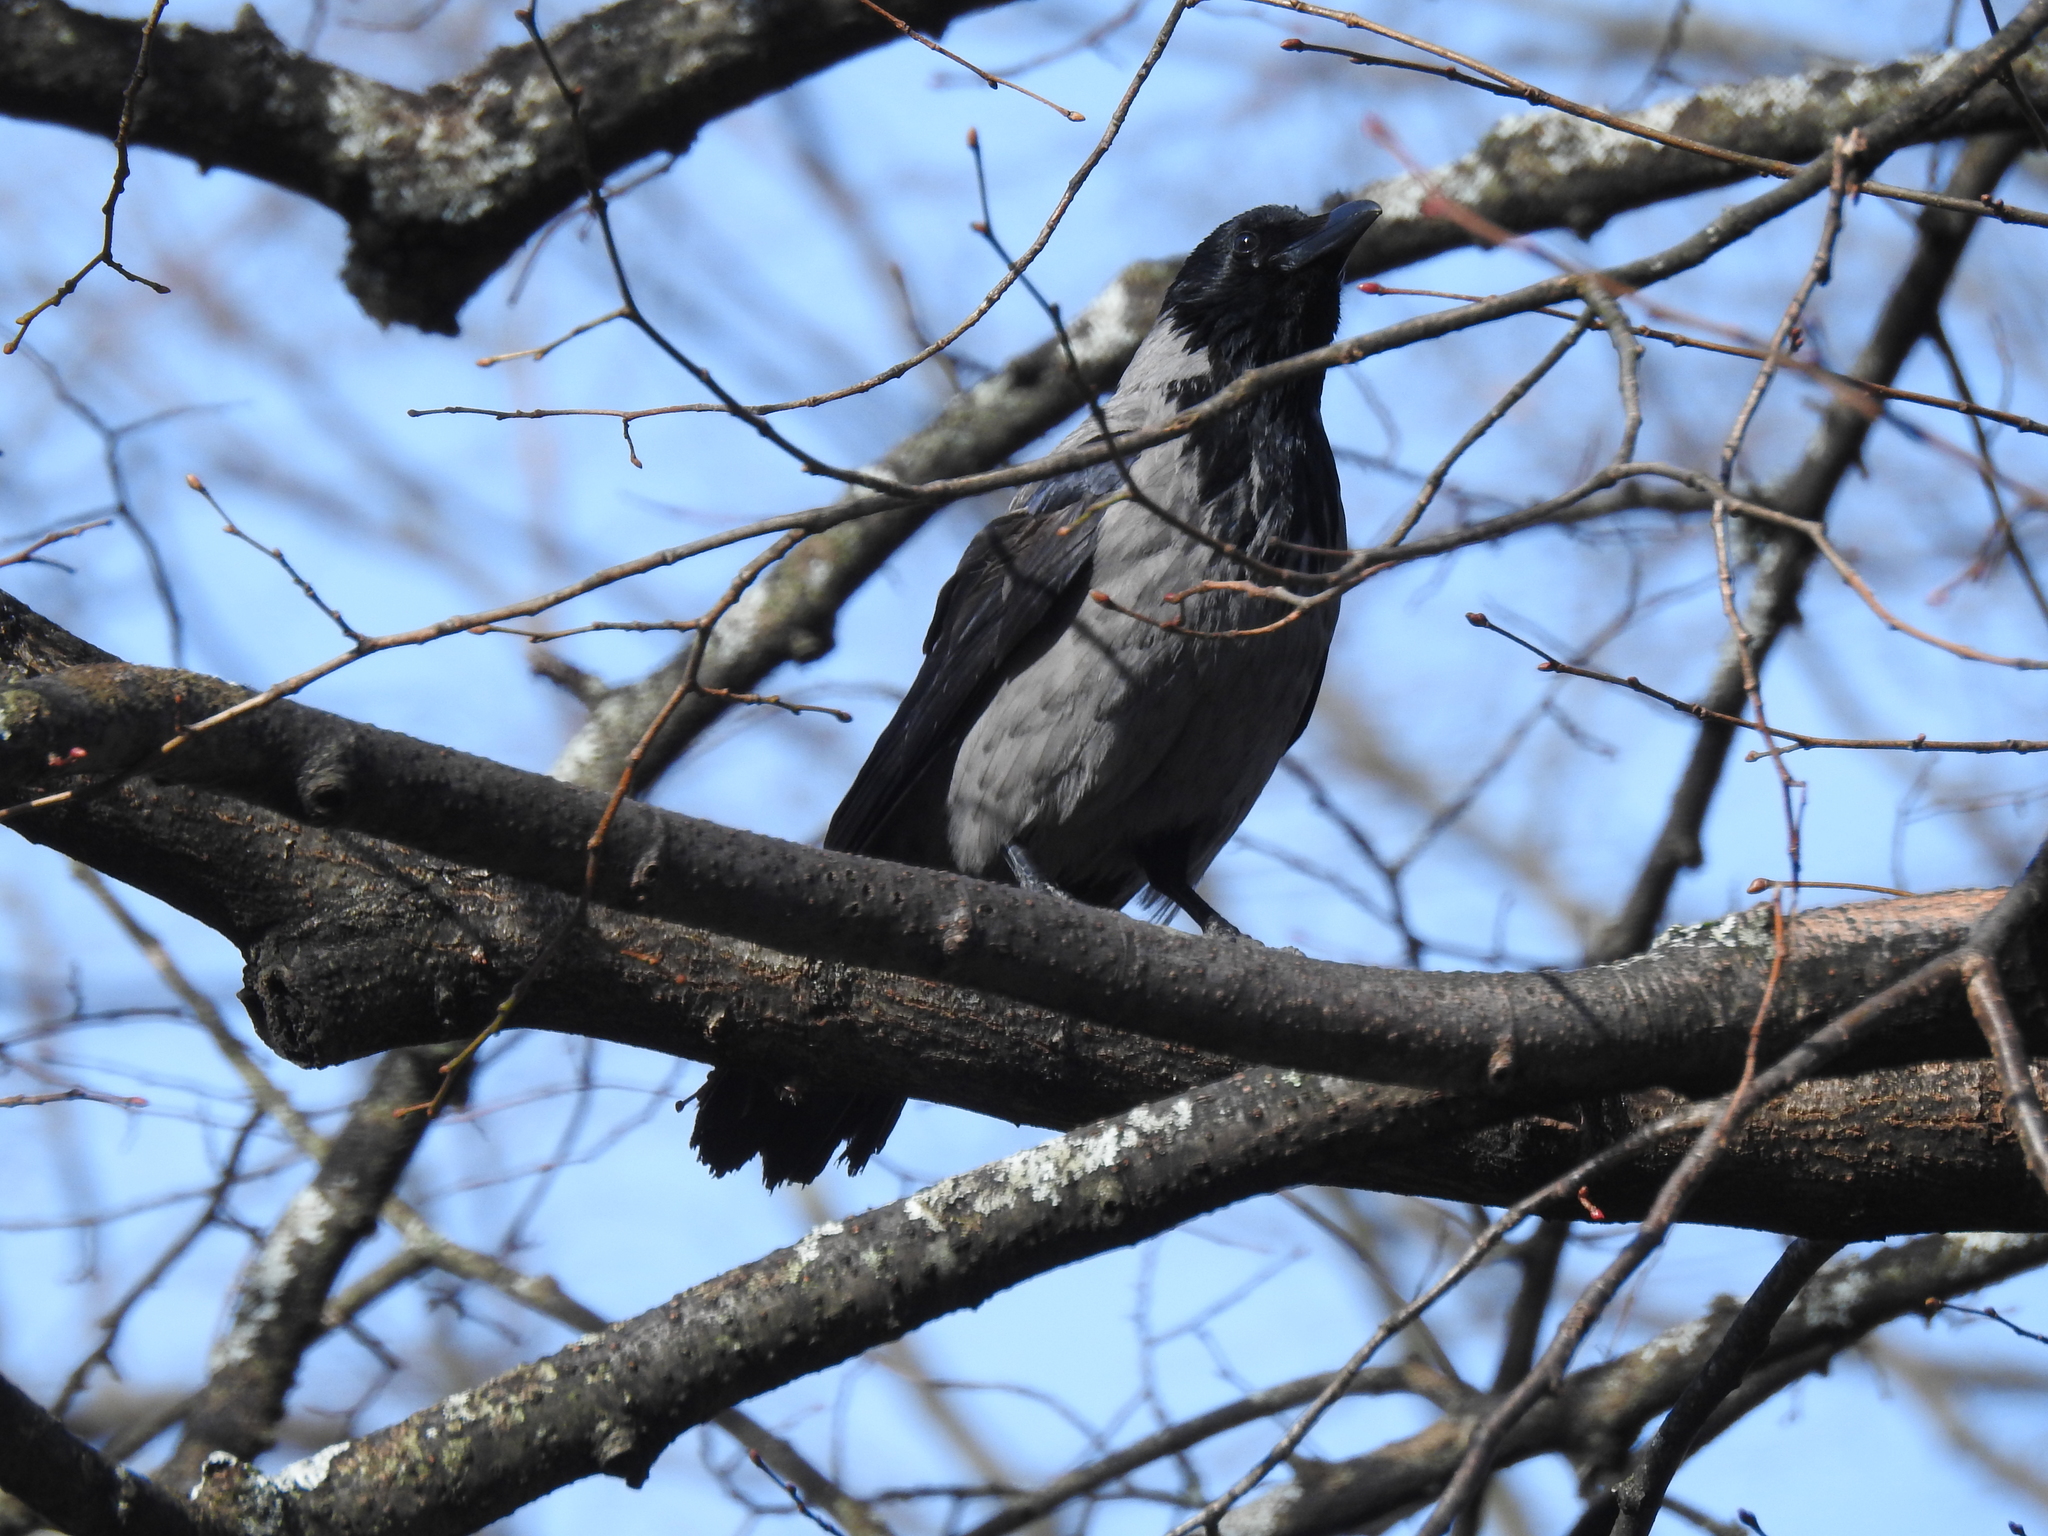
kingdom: Animalia
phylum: Chordata
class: Aves
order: Passeriformes
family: Corvidae
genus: Corvus
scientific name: Corvus cornix
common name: Hooded crow
